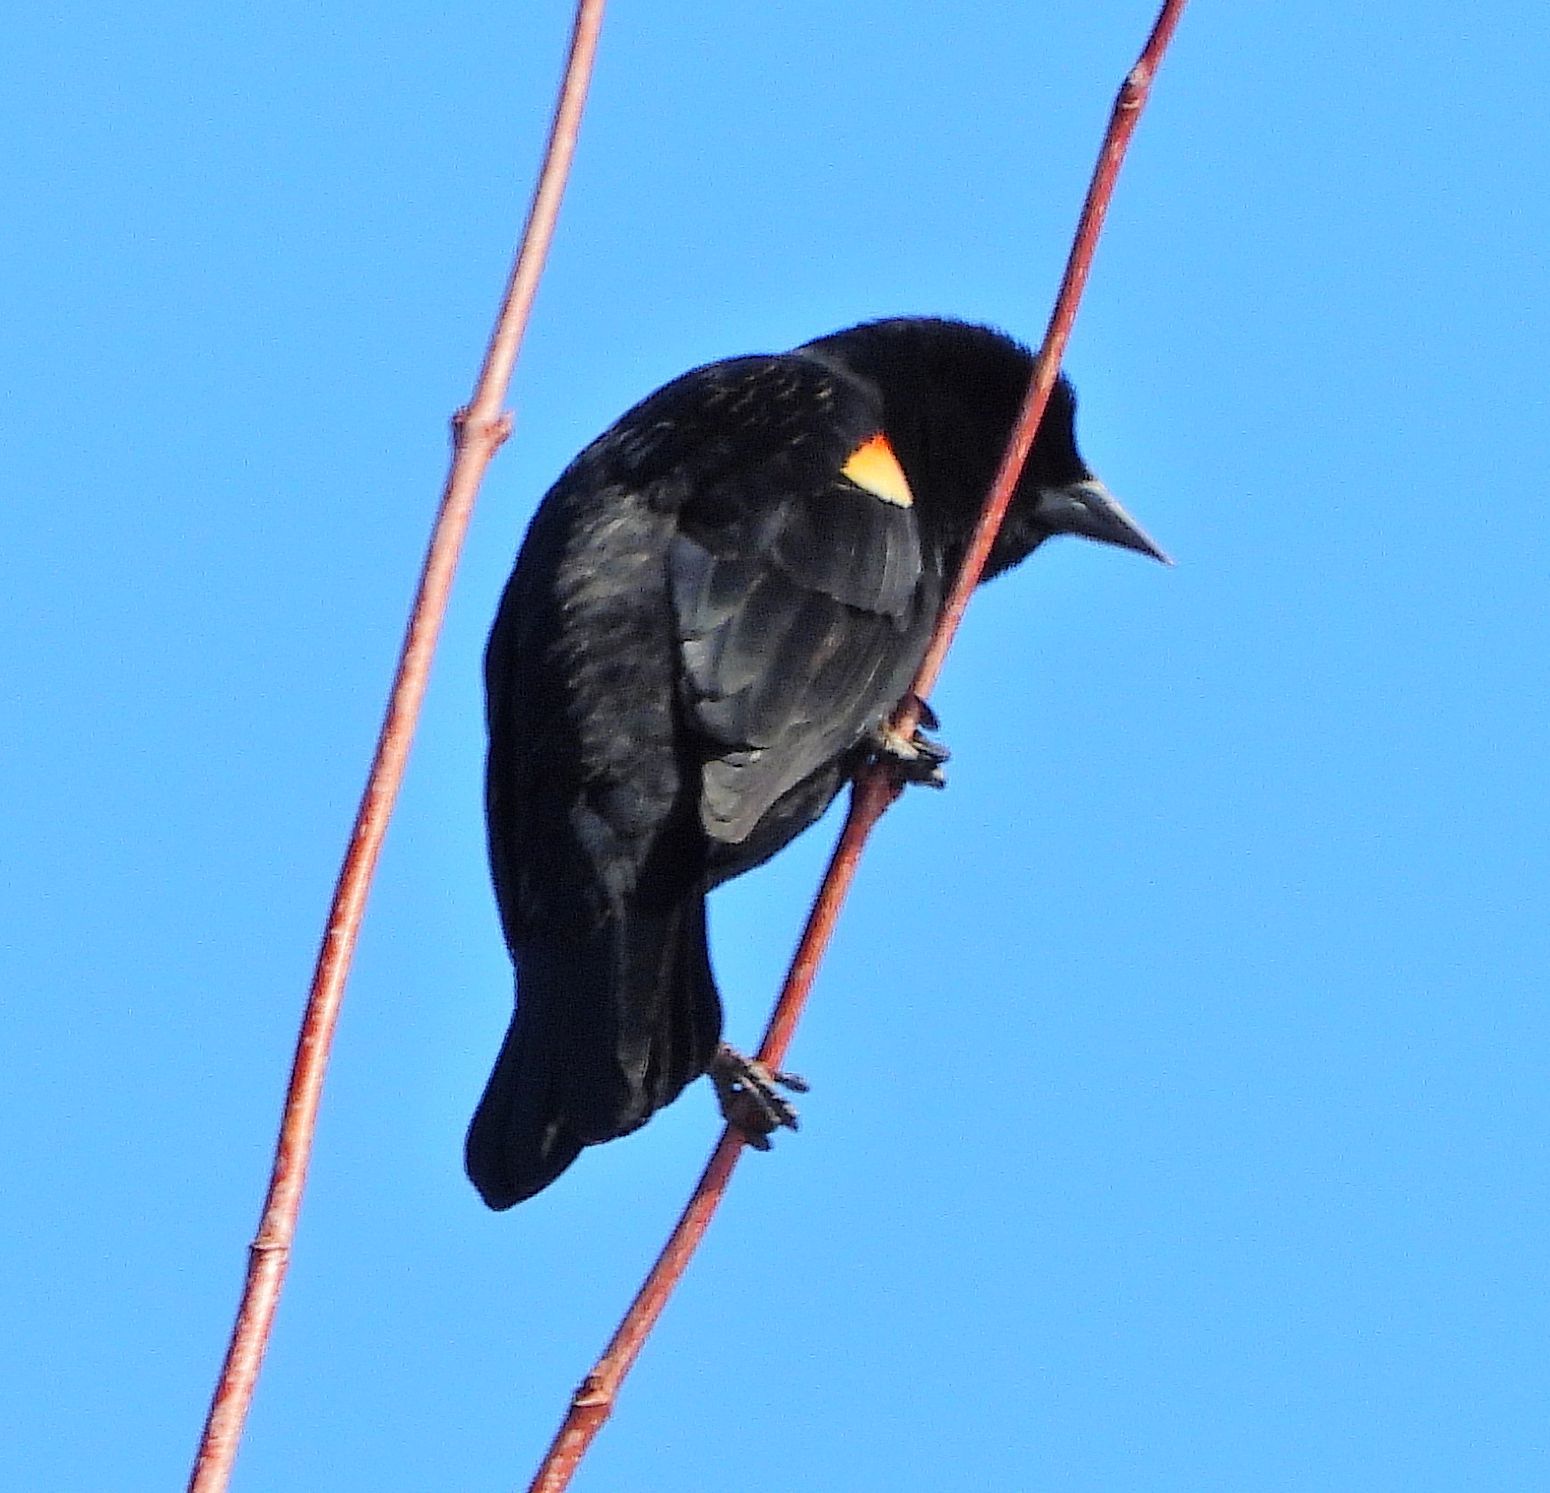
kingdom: Animalia
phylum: Chordata
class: Aves
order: Passeriformes
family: Icteridae
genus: Agelaius
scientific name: Agelaius phoeniceus
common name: Red-winged blackbird
